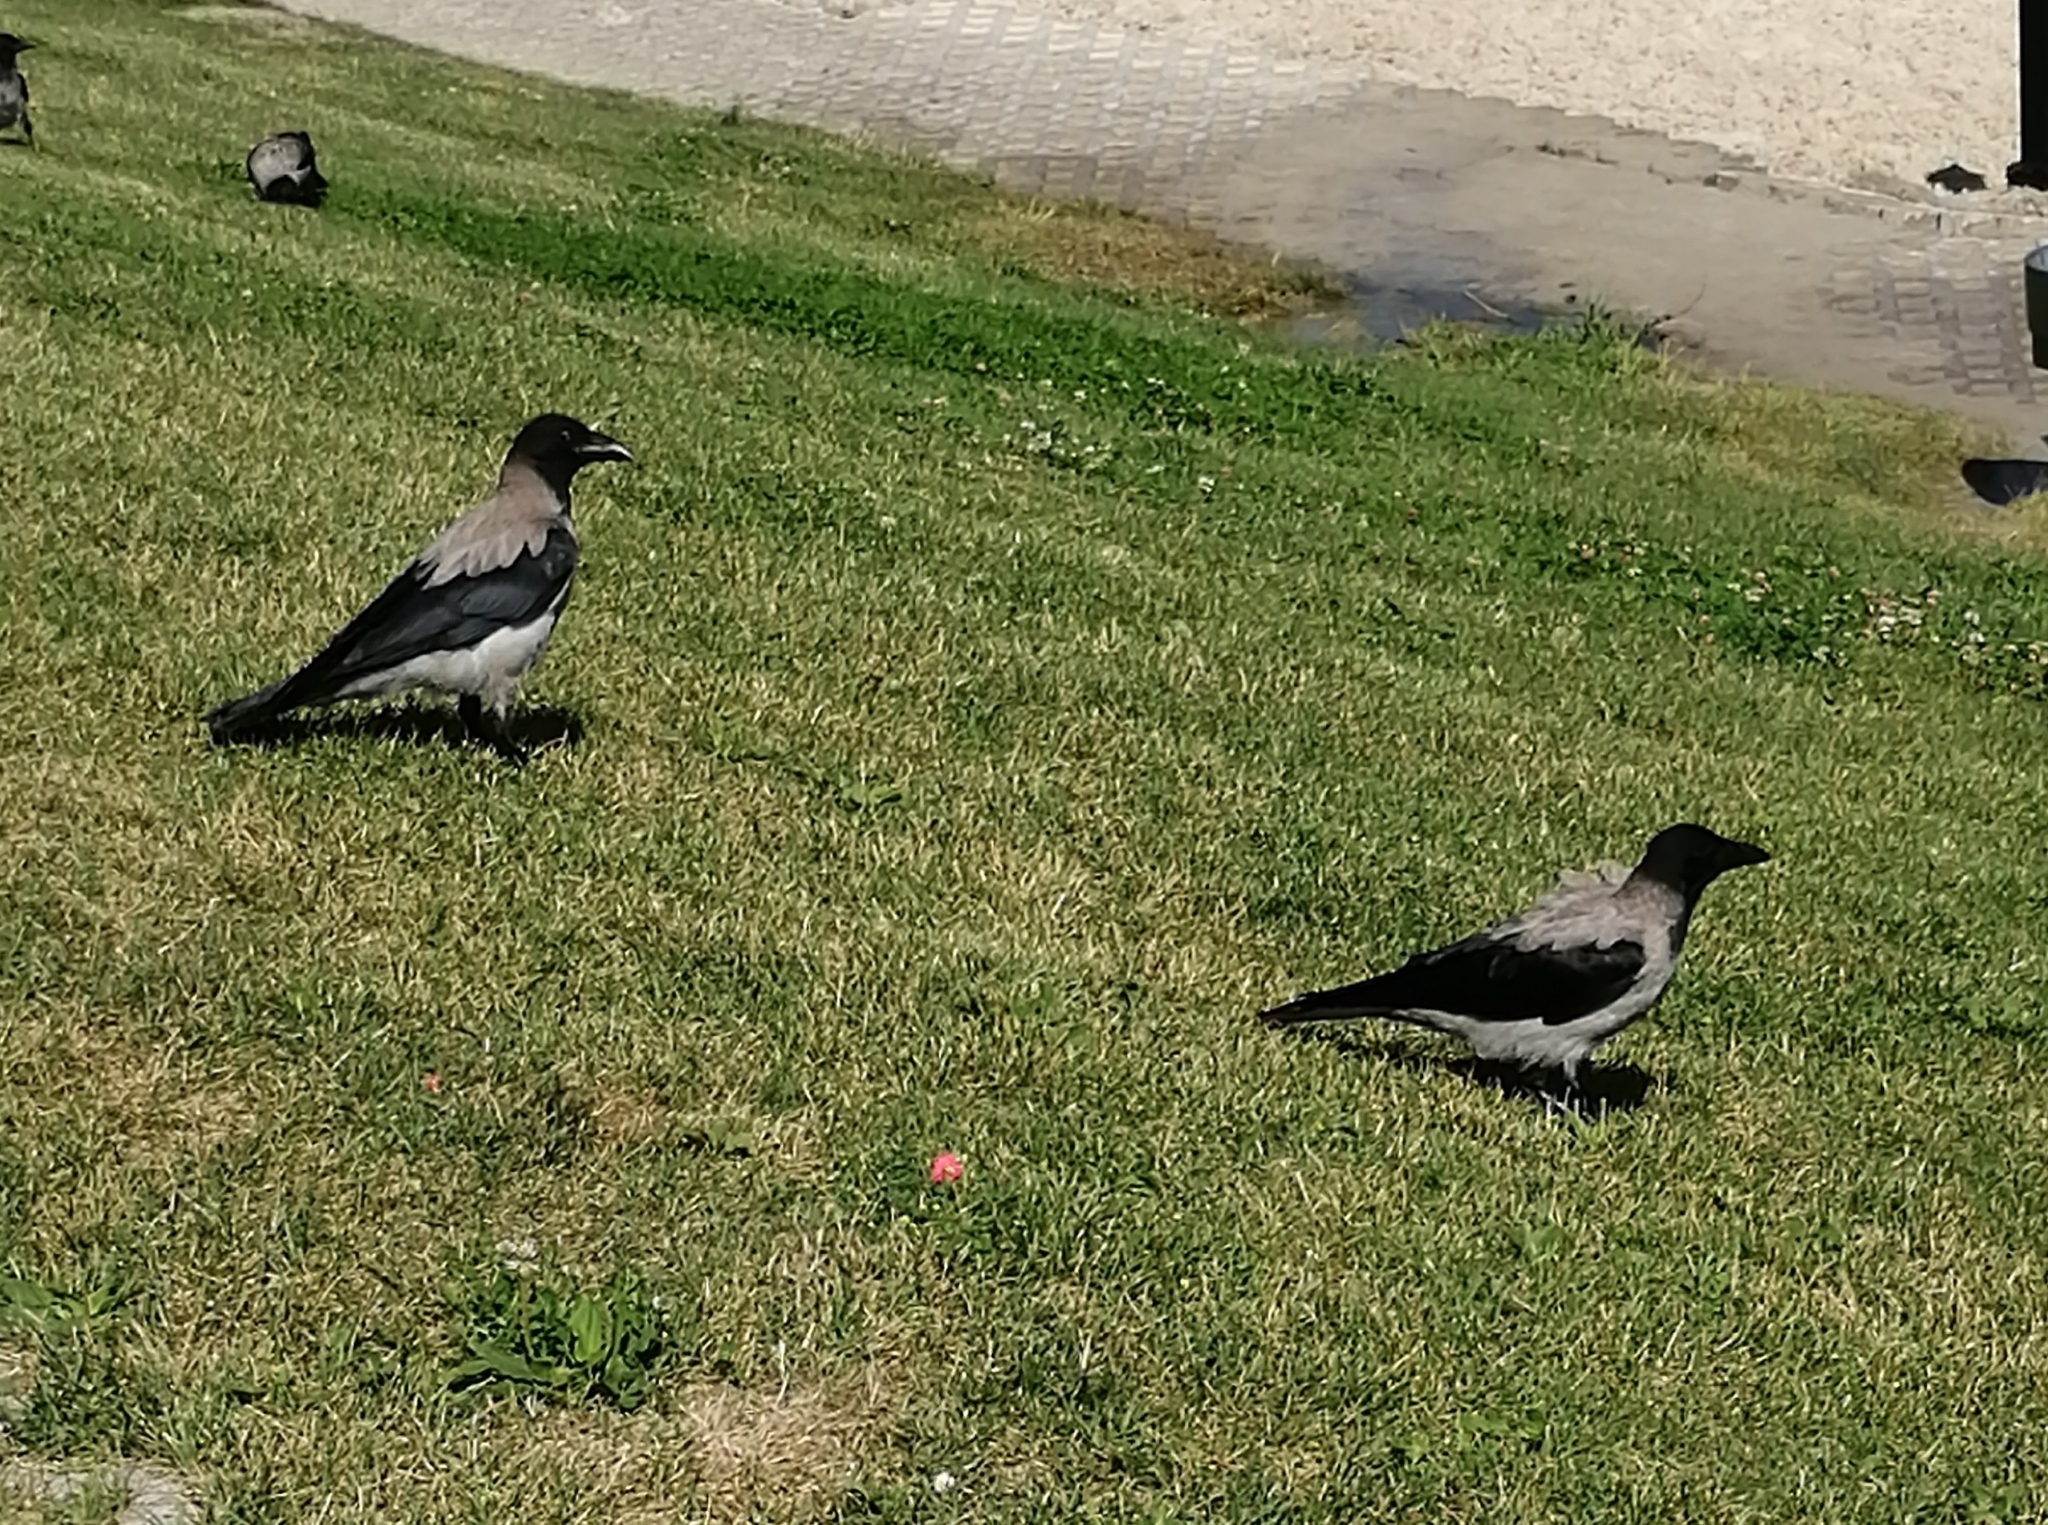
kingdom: Animalia
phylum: Chordata
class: Aves
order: Passeriformes
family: Corvidae
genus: Corvus
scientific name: Corvus cornix
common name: Hooded crow
